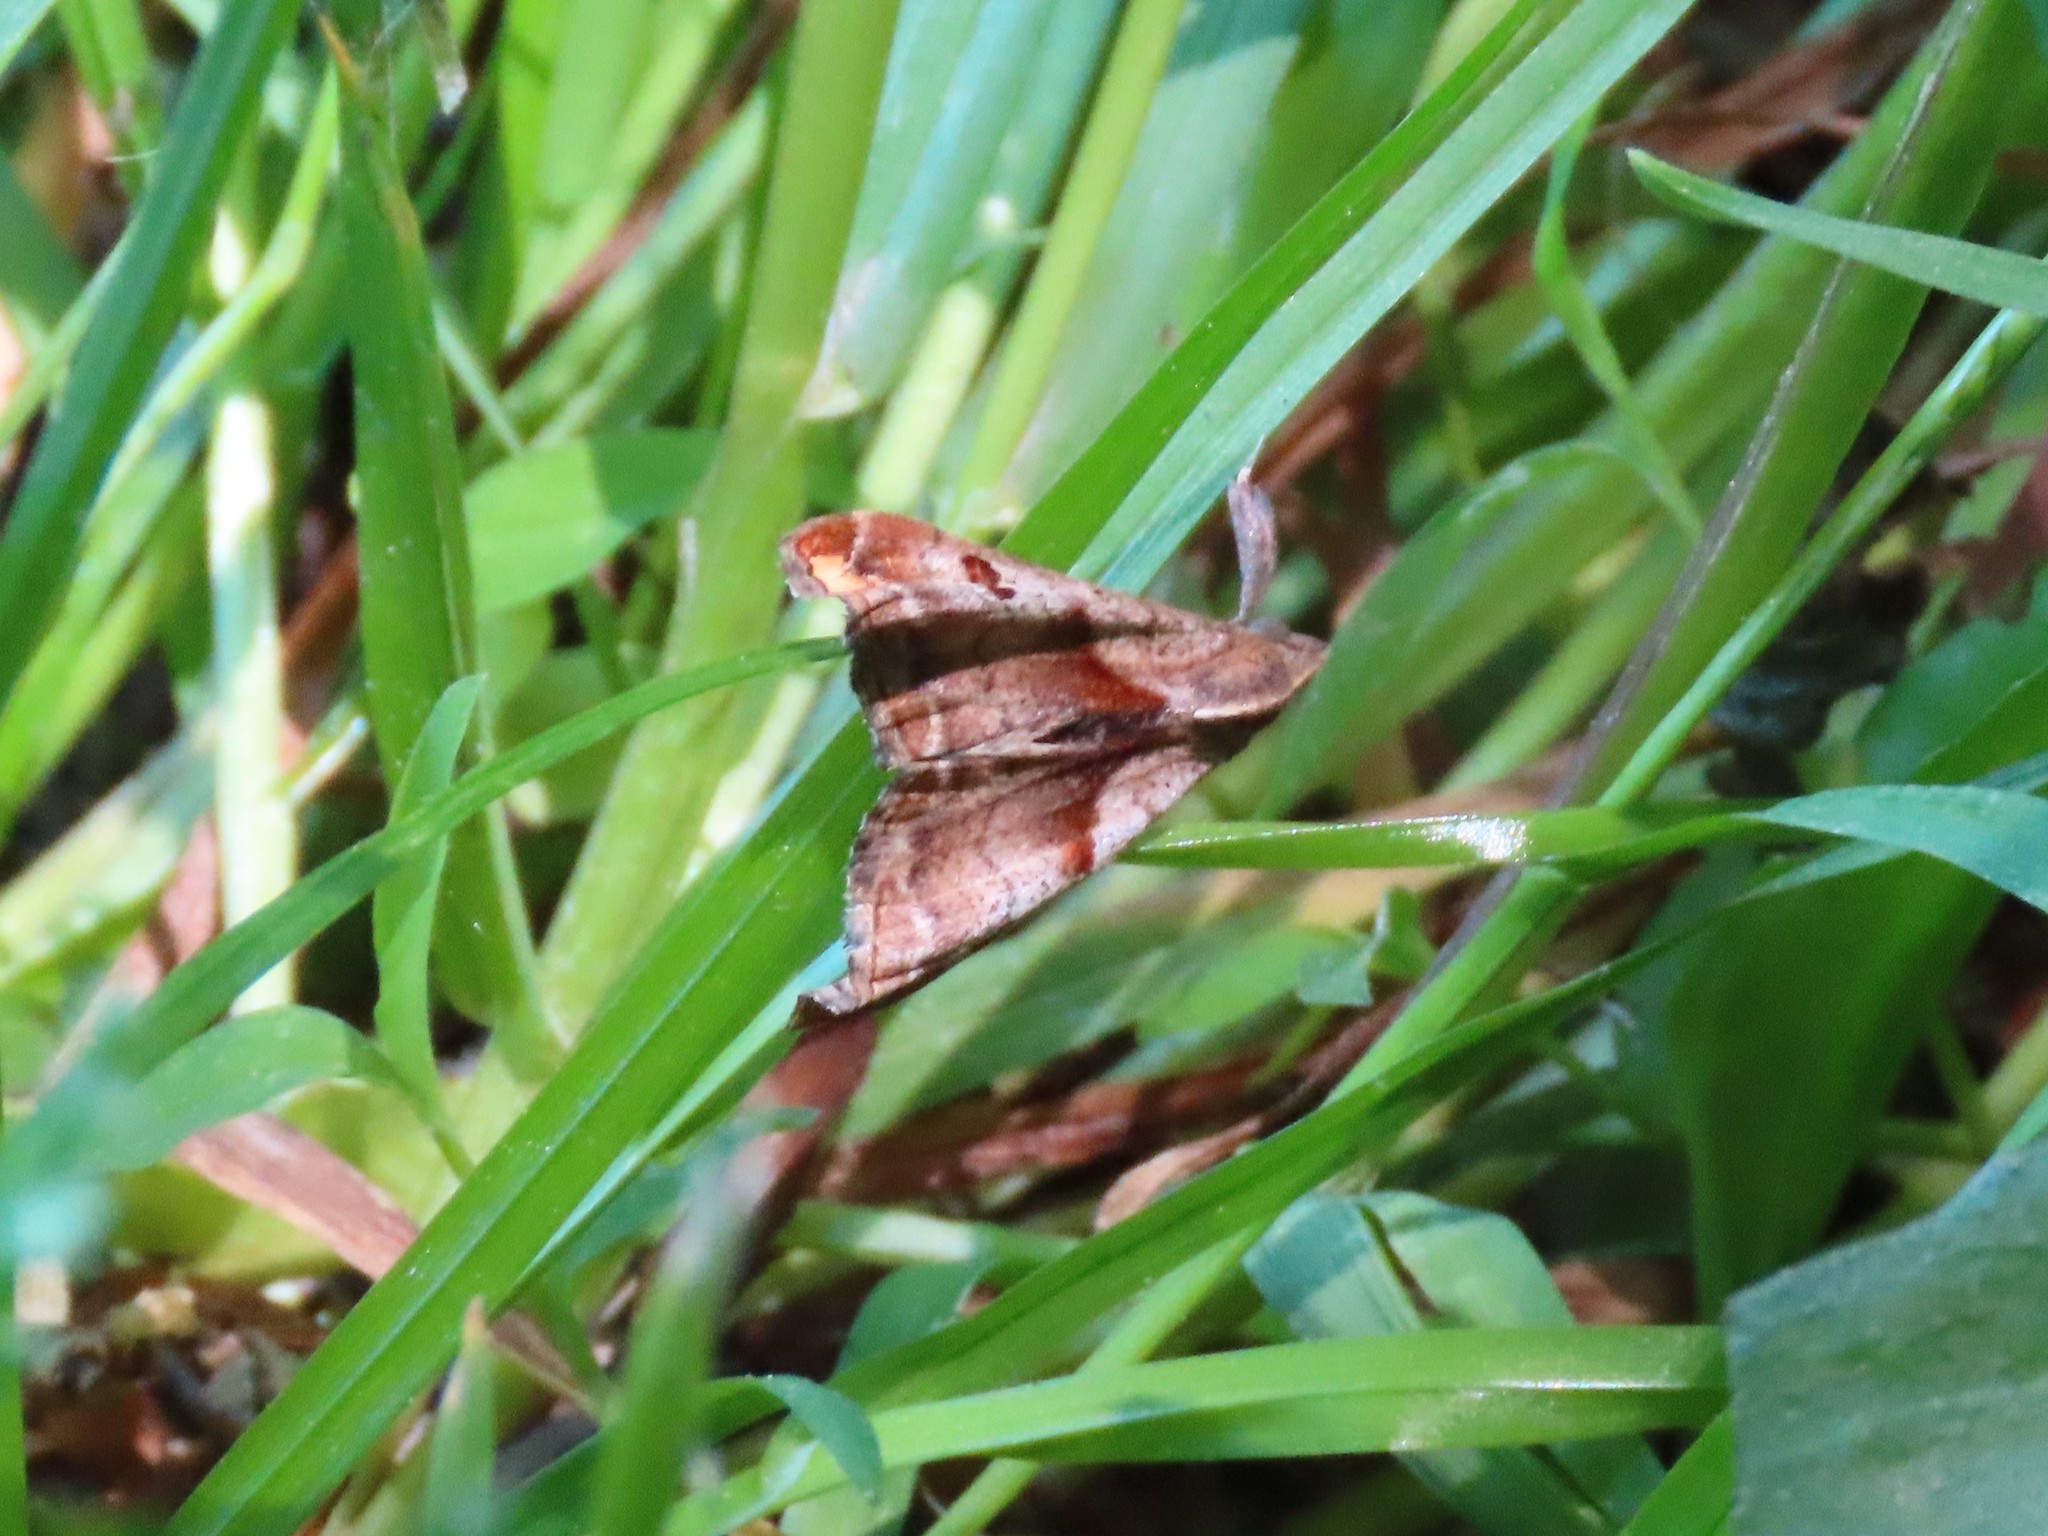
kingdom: Animalia
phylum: Arthropoda
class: Insecta
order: Lepidoptera
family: Erebidae
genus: Palthis
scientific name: Palthis angulalis
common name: Dark-spotted palthis moth
